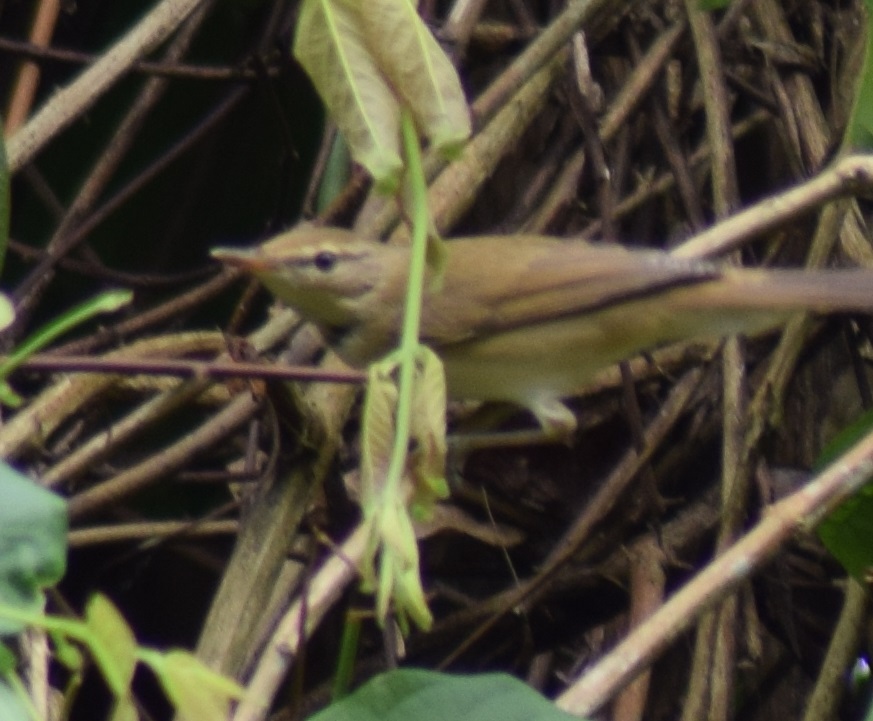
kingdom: Animalia
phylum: Chordata
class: Aves
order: Passeriformes
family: Acrocephalidae
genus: Acrocephalus
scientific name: Acrocephalus dumetorum
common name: Blyth's reed warbler
